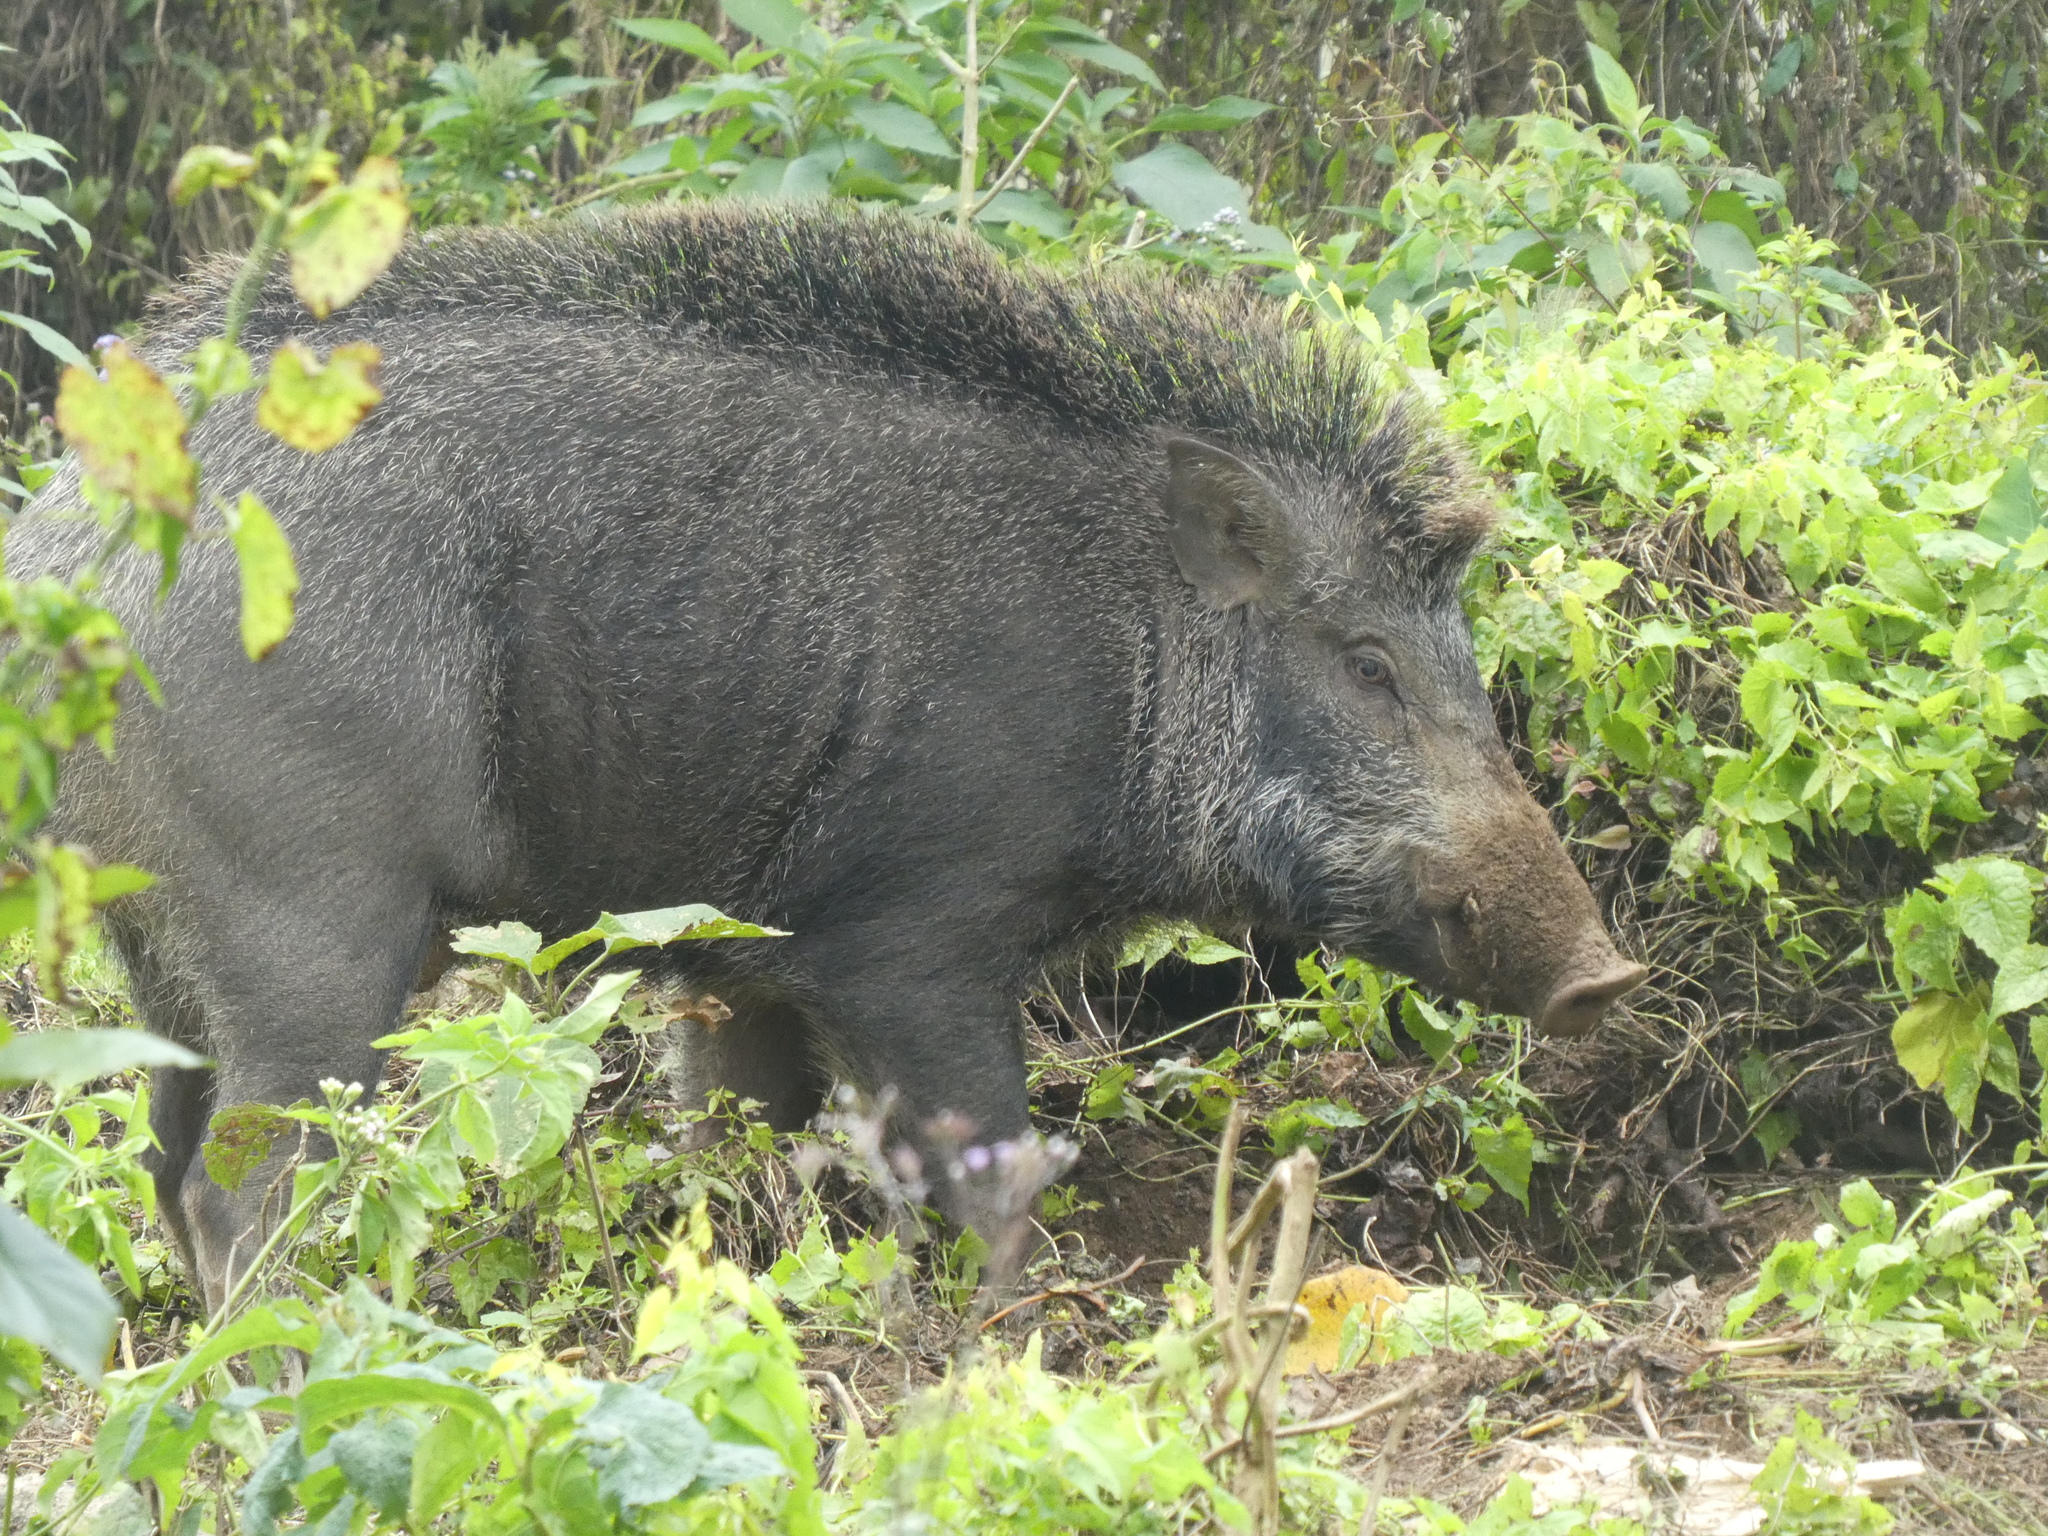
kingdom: Animalia
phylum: Chordata
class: Mammalia
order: Artiodactyla
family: Suidae
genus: Sus
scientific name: Sus scrofa
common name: Wild boar
